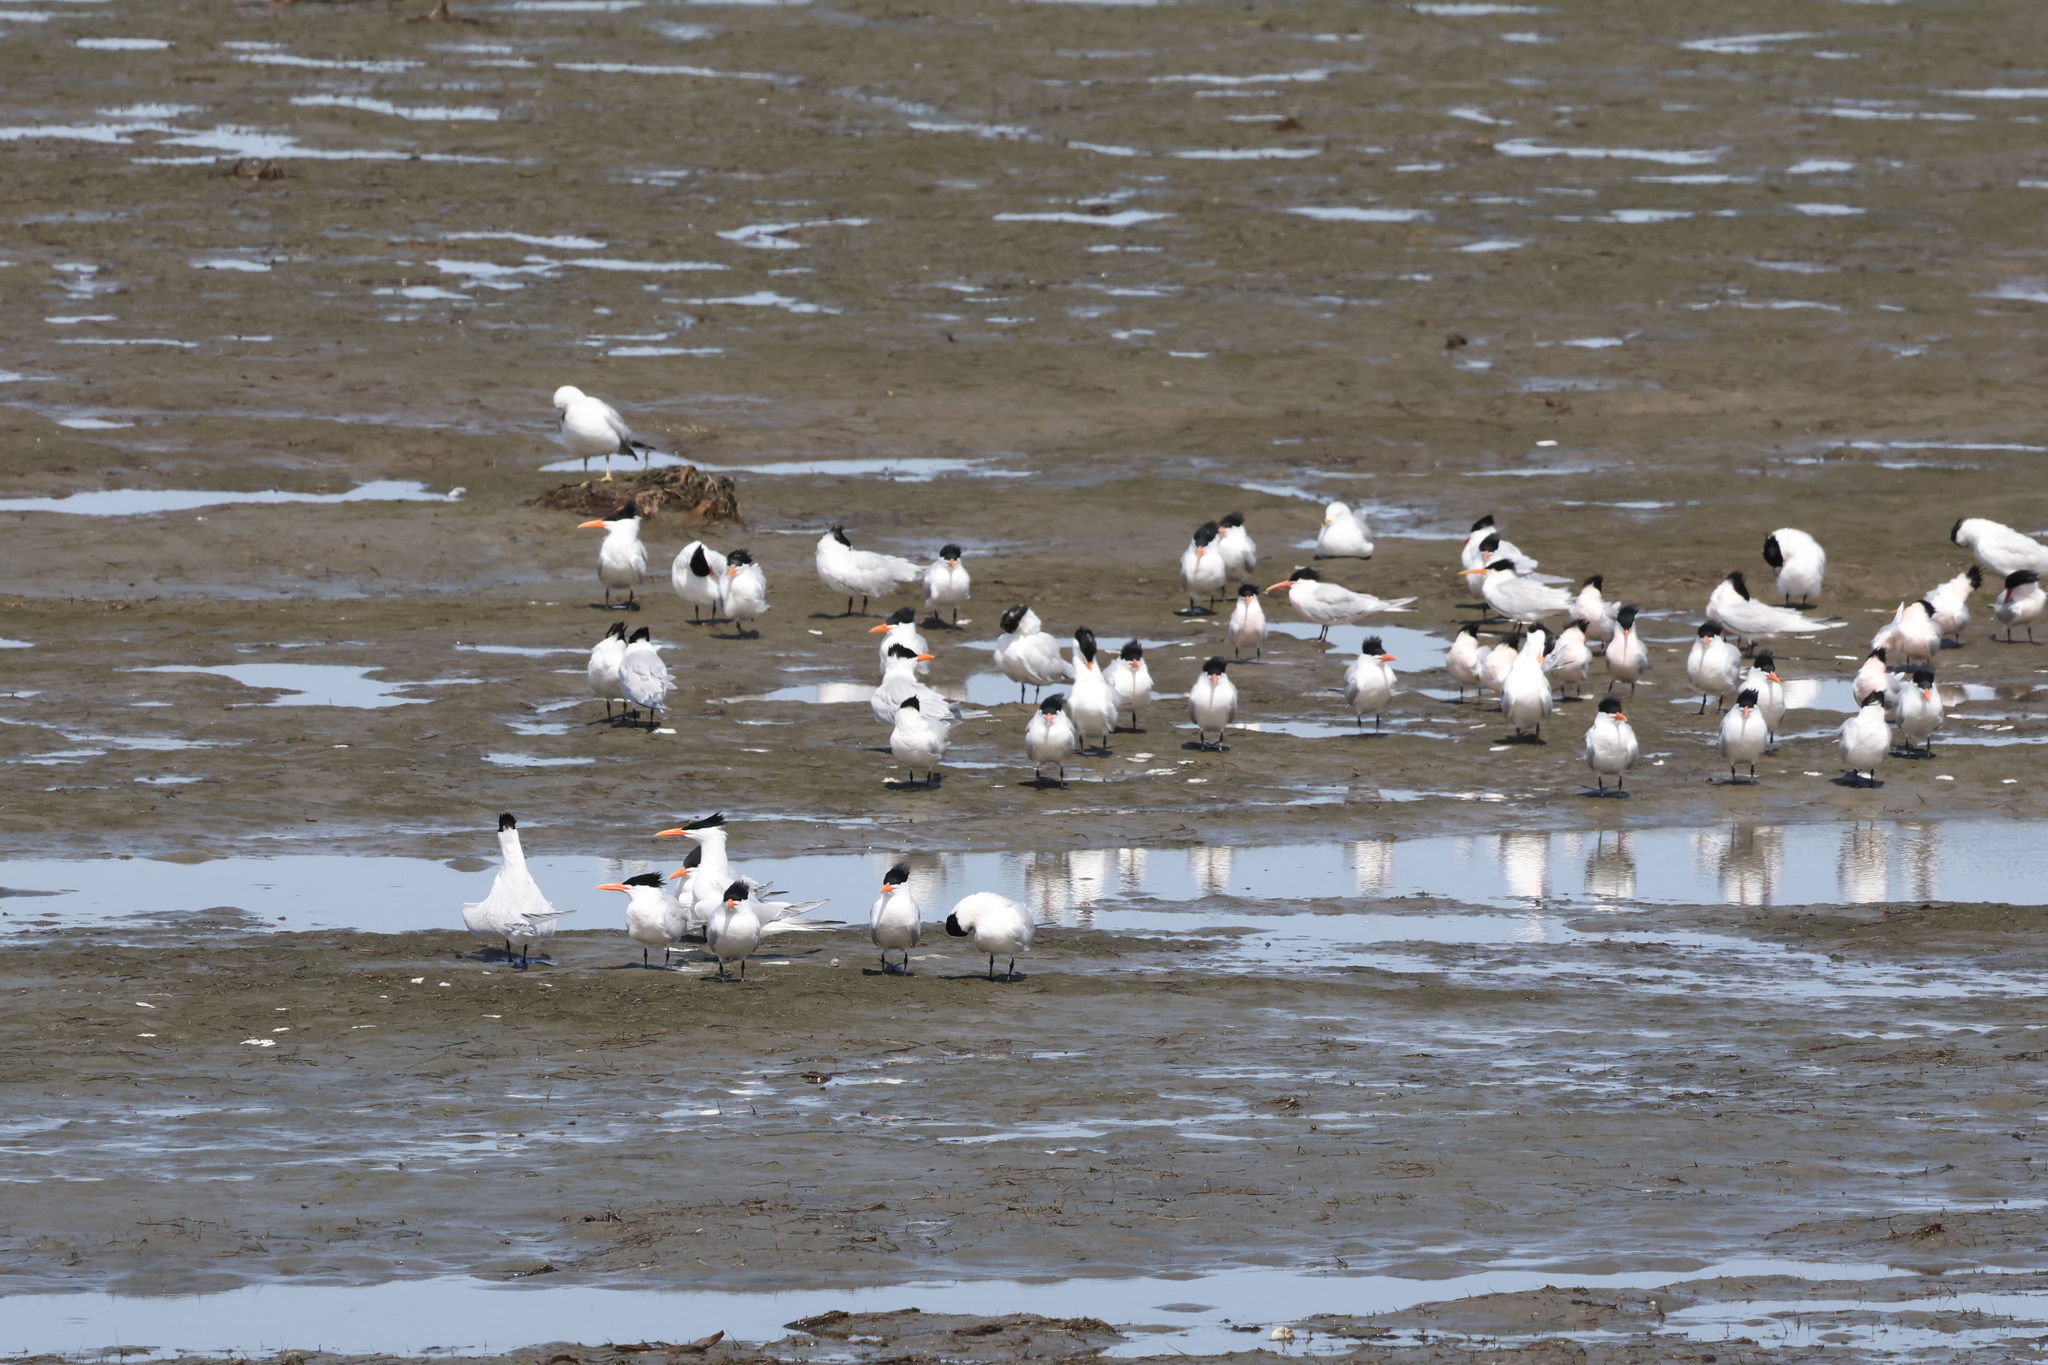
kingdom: Animalia
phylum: Chordata
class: Aves
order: Charadriiformes
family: Laridae
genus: Thalasseus
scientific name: Thalasseus maximus
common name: Royal tern
